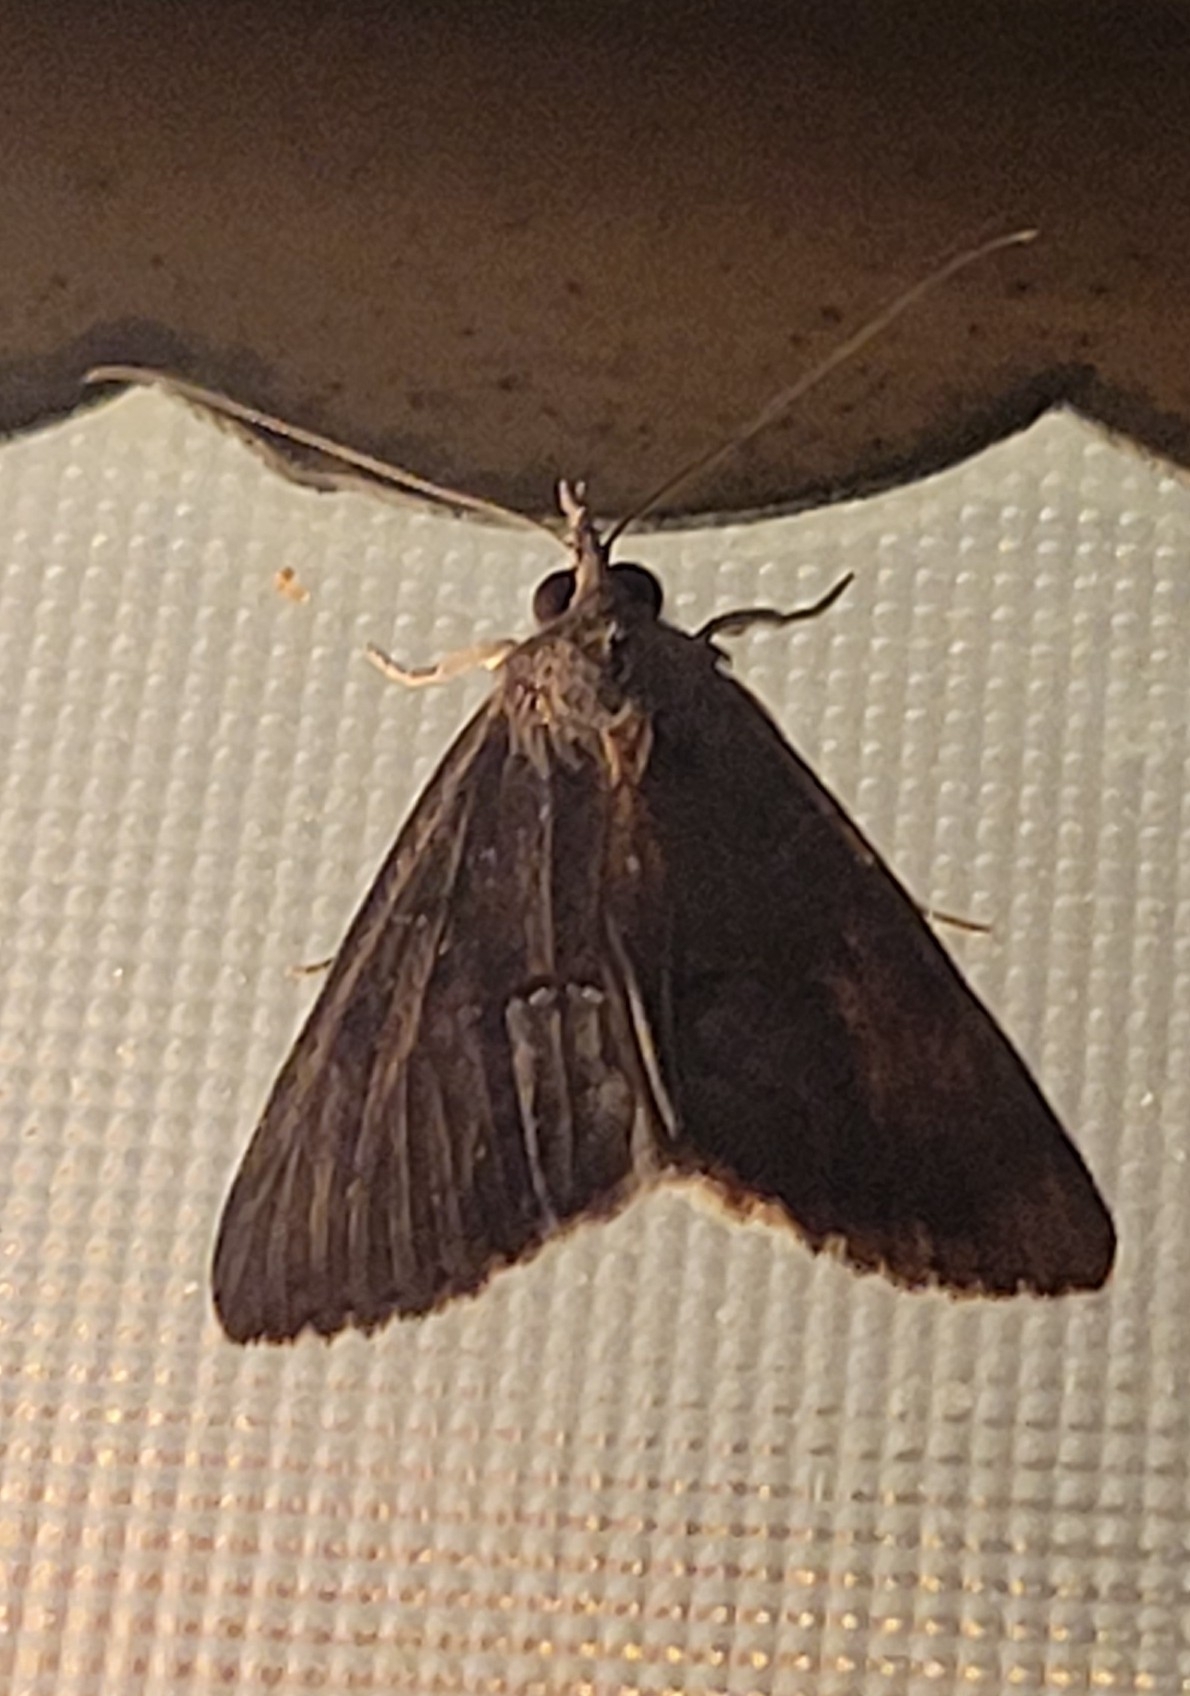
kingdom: Animalia
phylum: Arthropoda
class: Insecta
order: Lepidoptera
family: Erebidae
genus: Hypena
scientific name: Hypena scabra
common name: Green cloverworm
